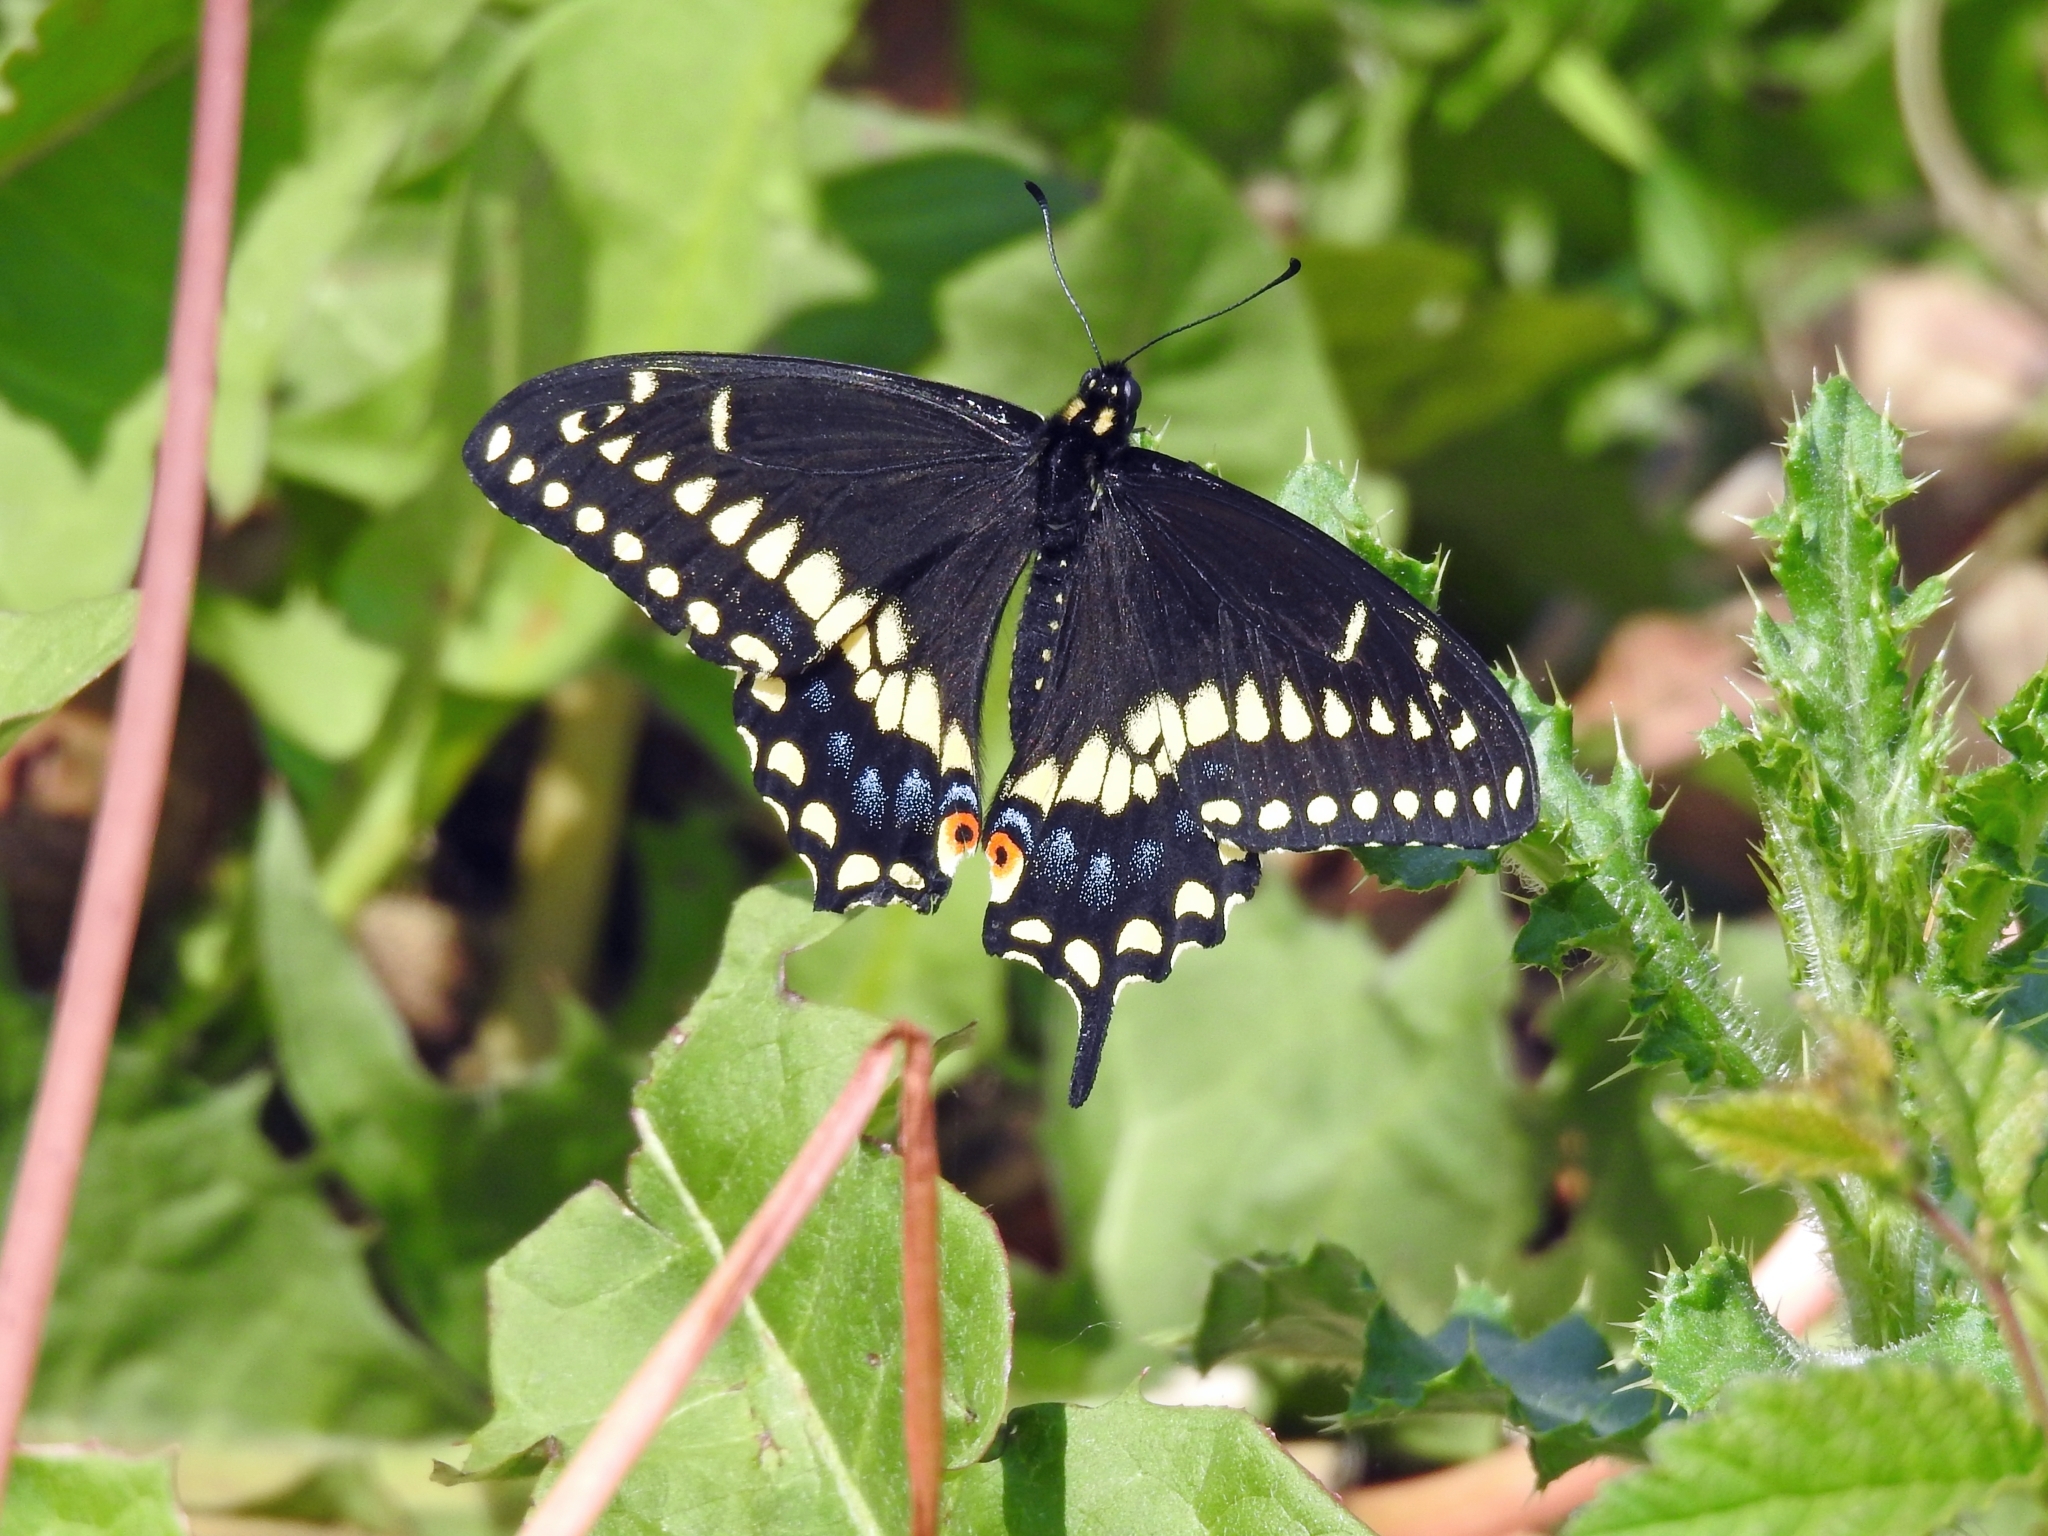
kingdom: Animalia
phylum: Arthropoda
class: Insecta
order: Lepidoptera
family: Papilionidae
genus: Papilio
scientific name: Papilio polyxenes
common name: Black swallowtail
